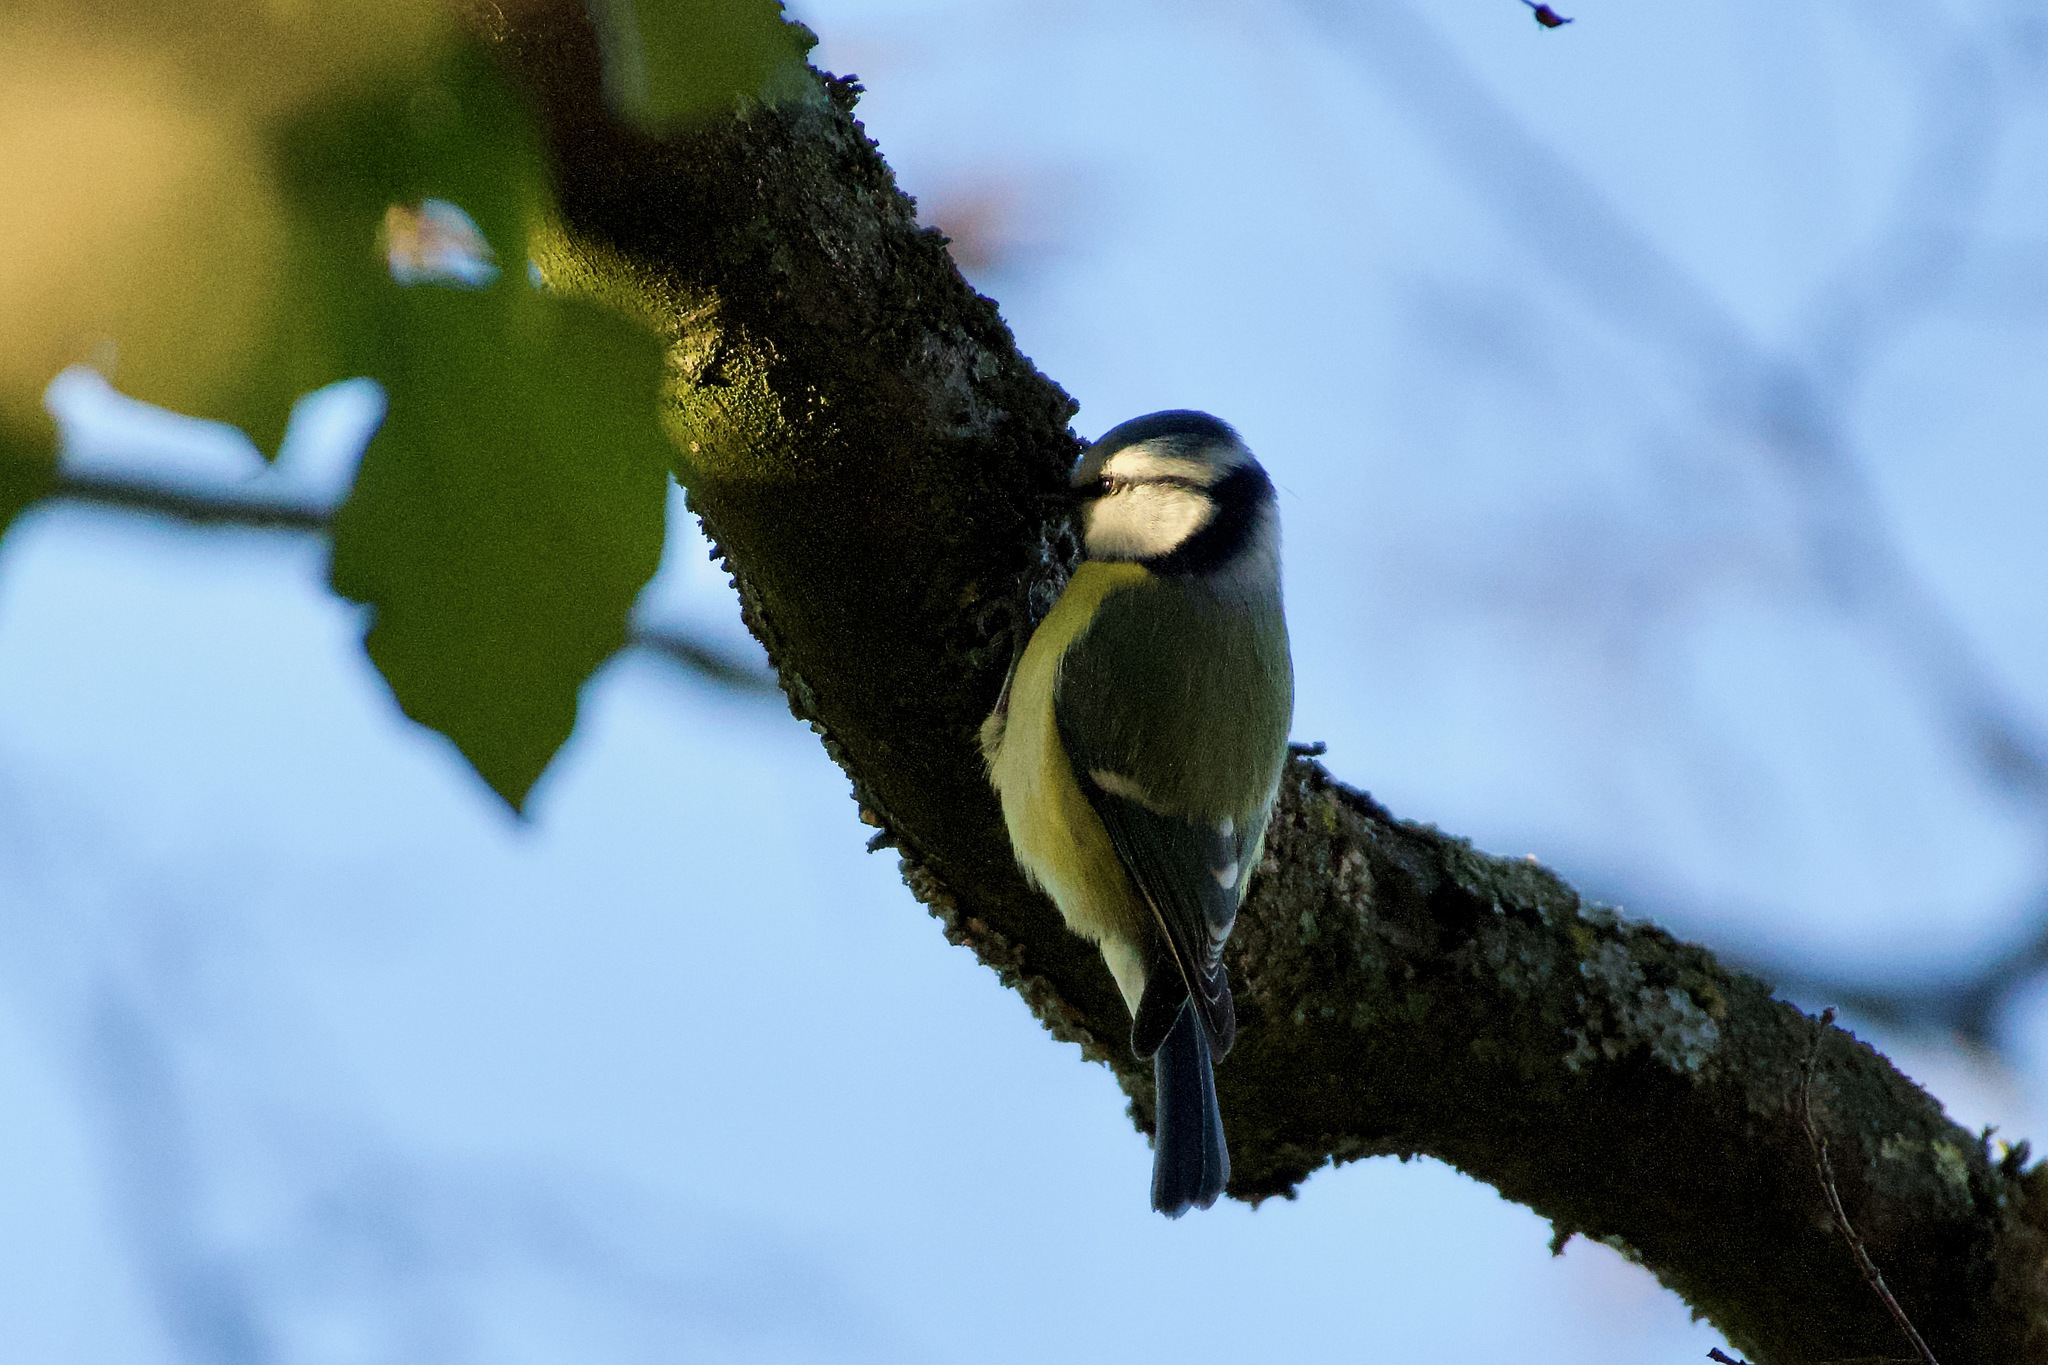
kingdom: Animalia
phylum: Chordata
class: Aves
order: Passeriformes
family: Paridae
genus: Cyanistes
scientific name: Cyanistes caeruleus
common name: Eurasian blue tit
